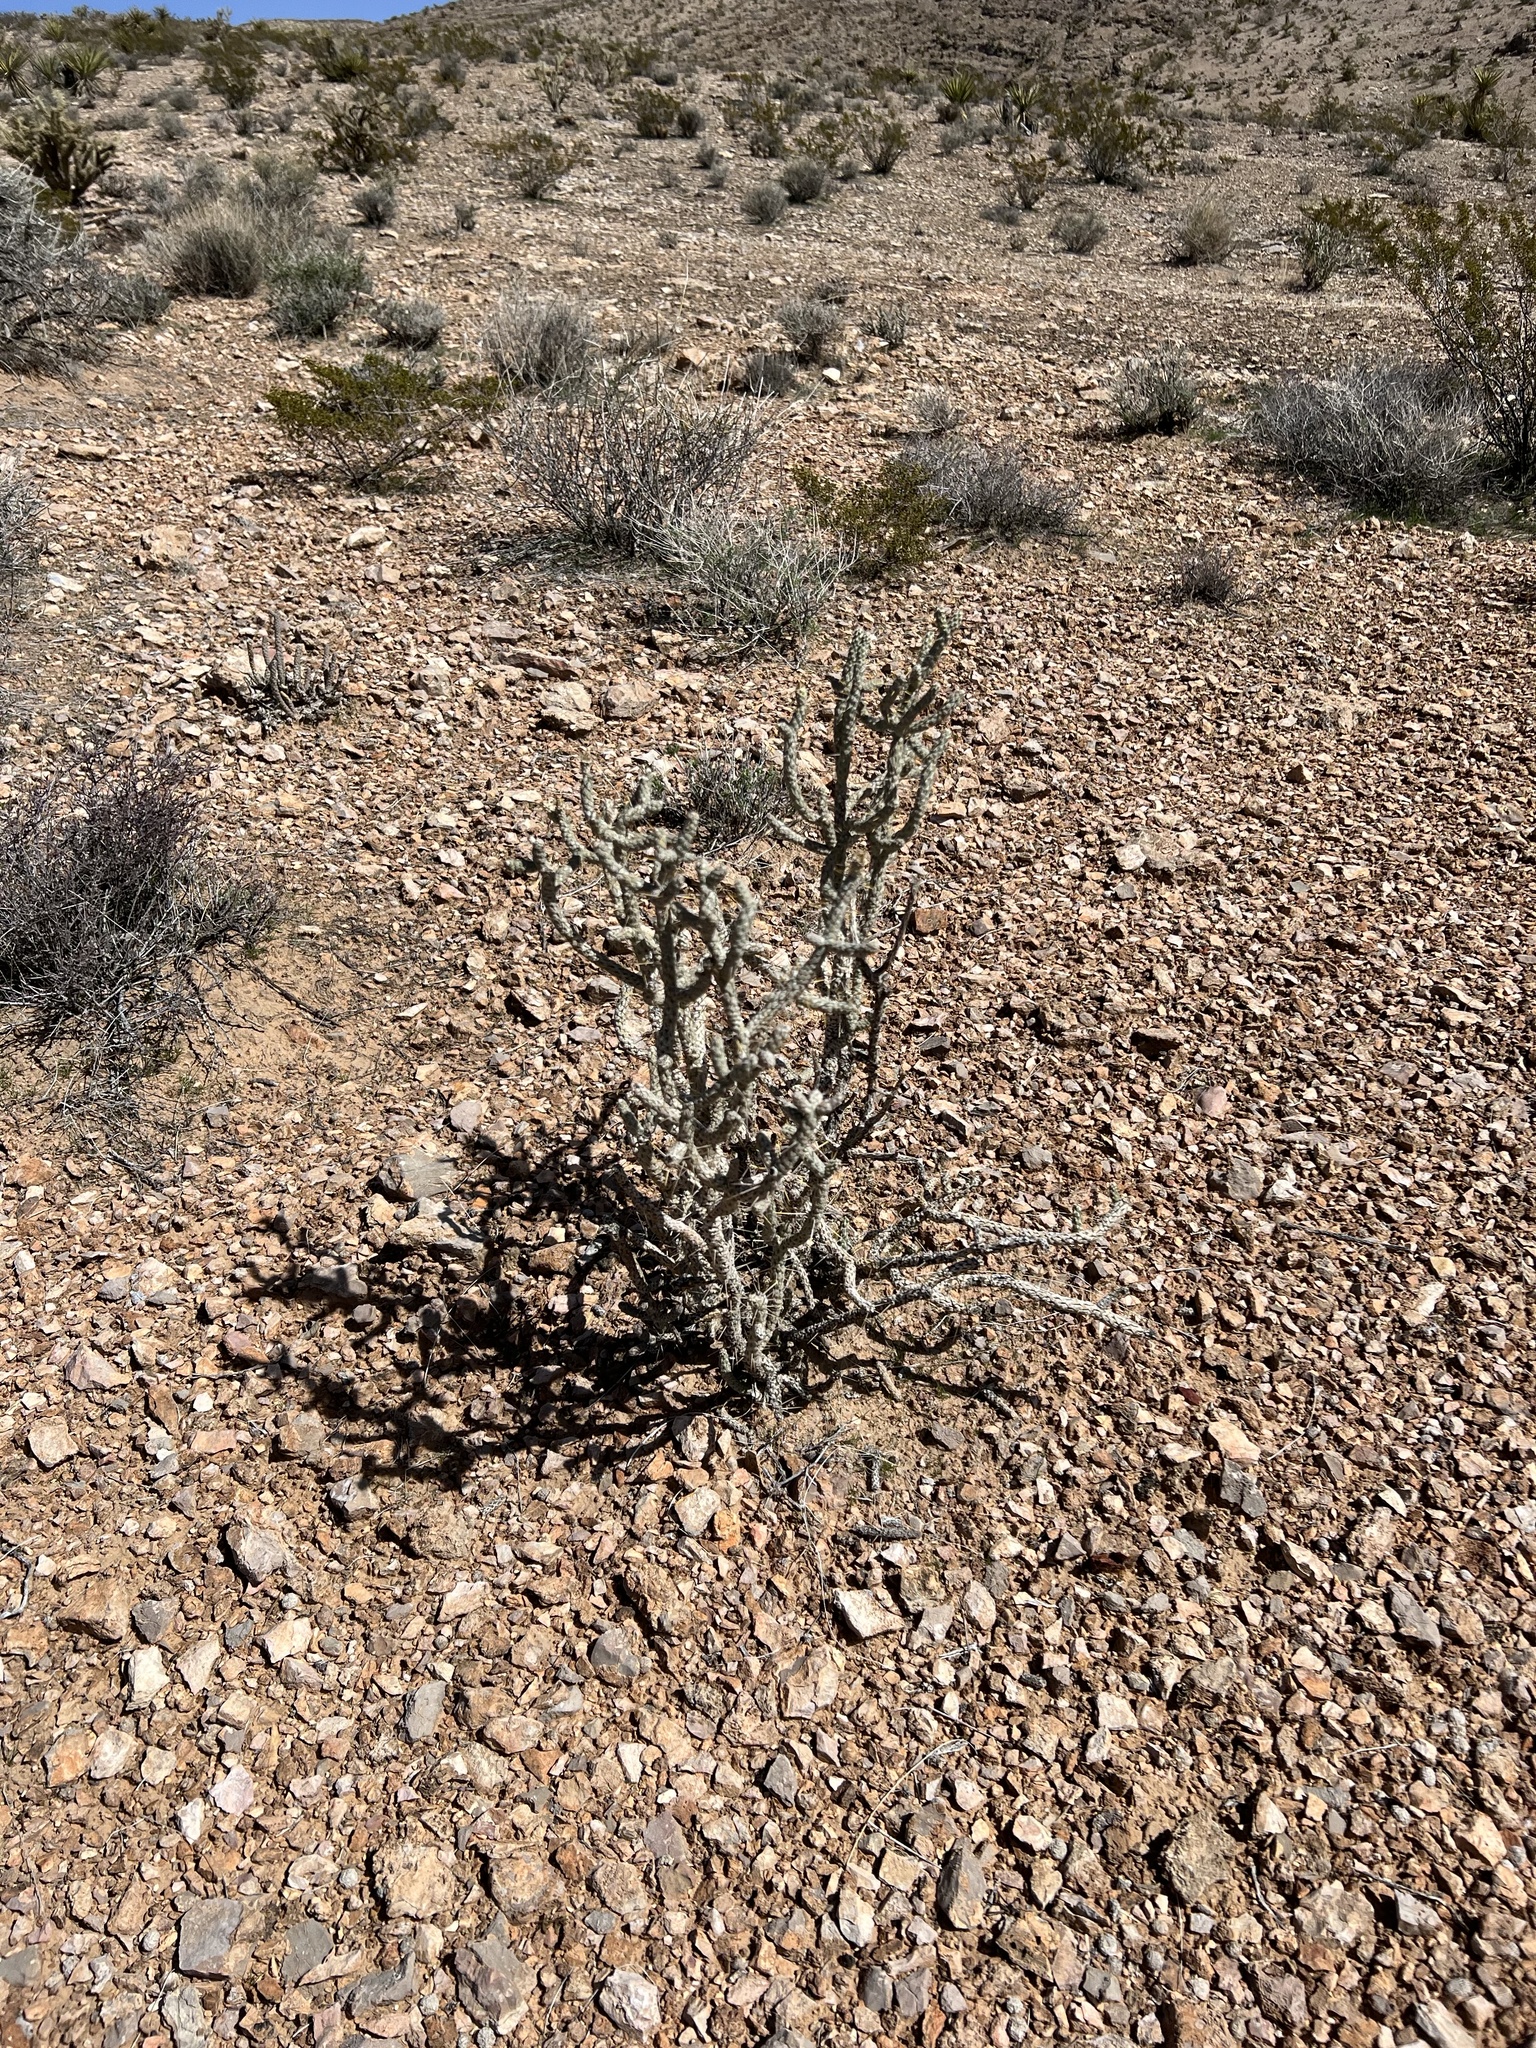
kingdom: Plantae
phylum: Tracheophyta
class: Magnoliopsida
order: Caryophyllales
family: Cactaceae
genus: Cylindropuntia
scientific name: Cylindropuntia ramosissima
